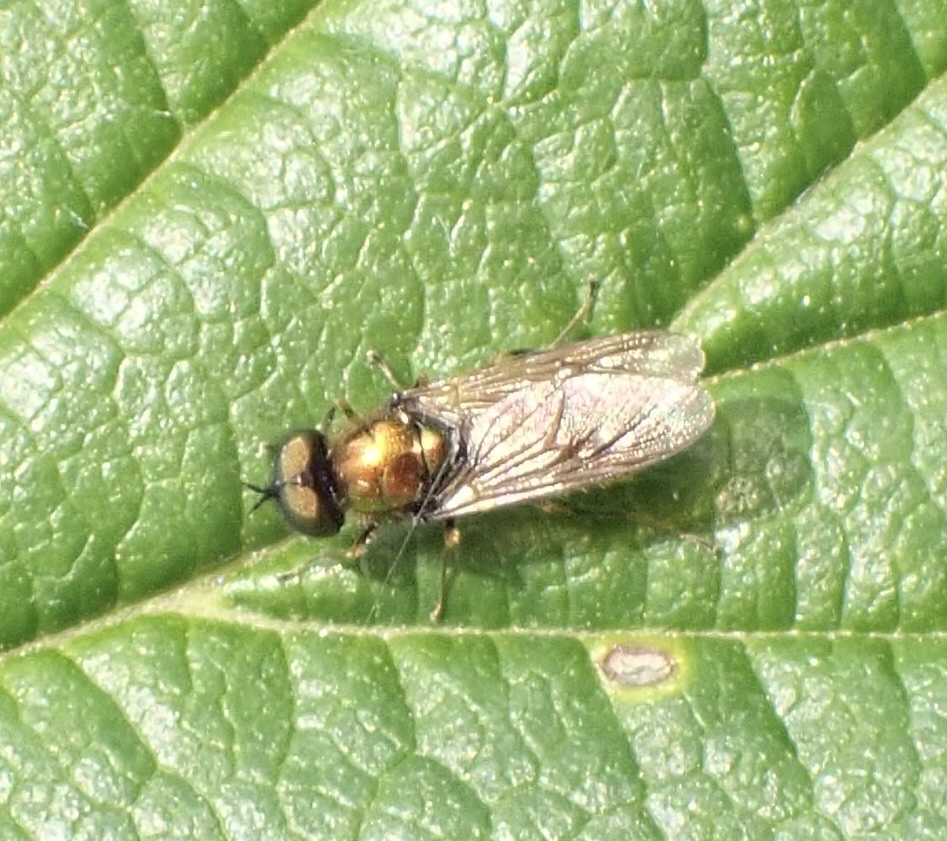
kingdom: Animalia
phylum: Arthropoda
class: Insecta
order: Diptera
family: Stratiomyidae
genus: Chloromyia
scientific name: Chloromyia formosa
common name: Soldier fly
